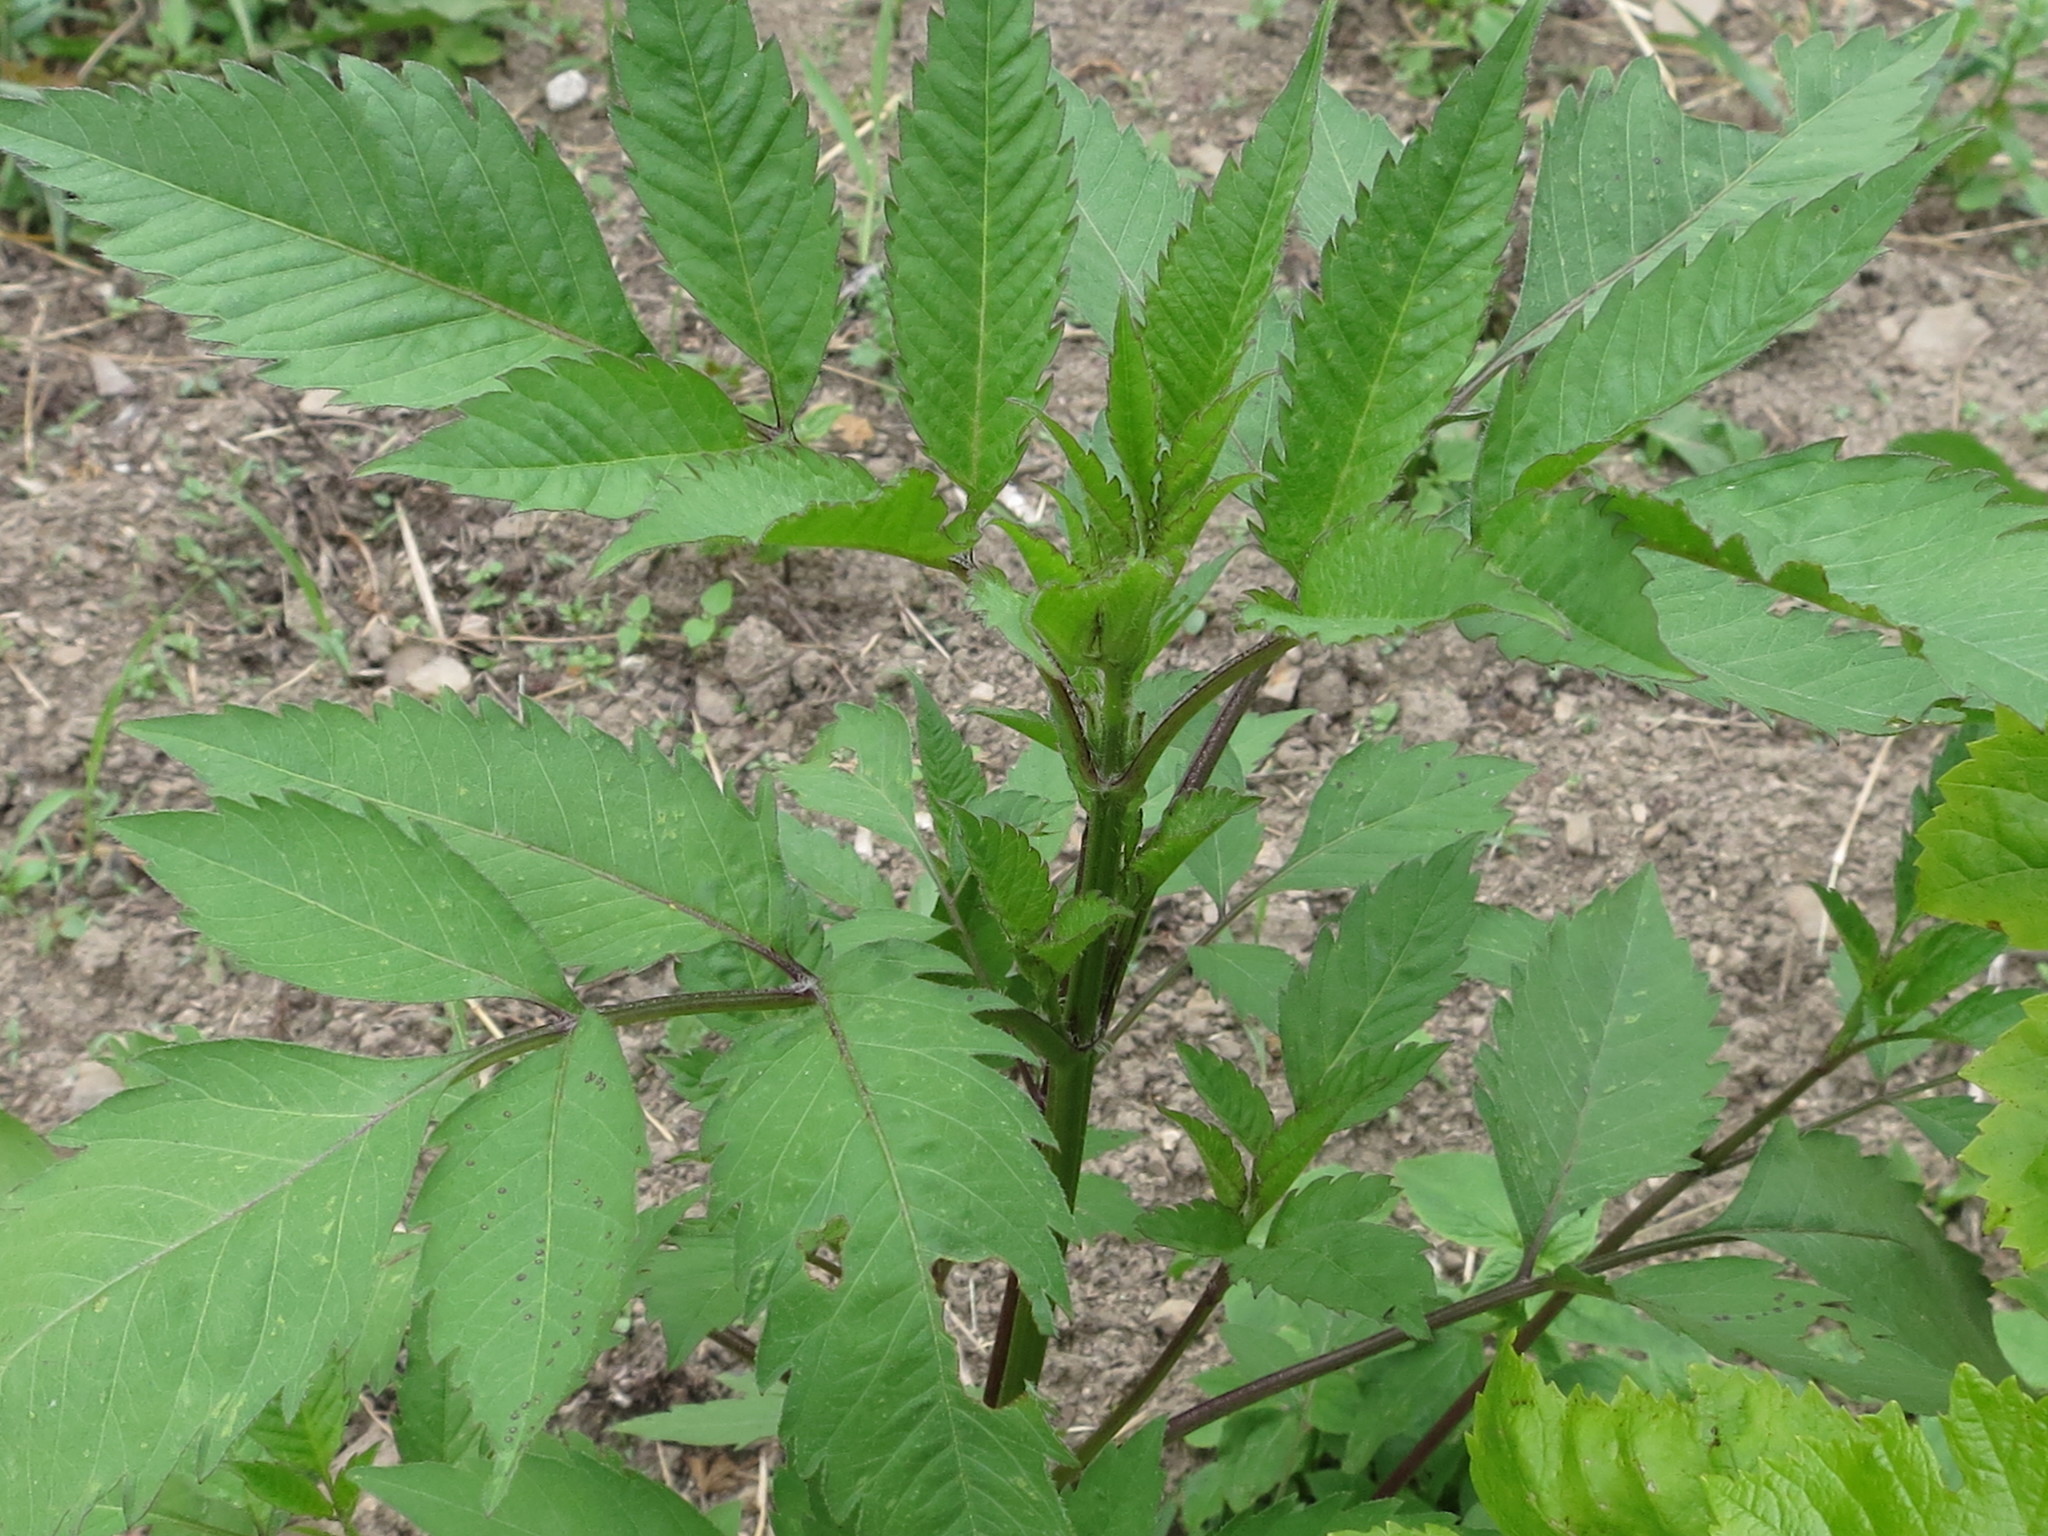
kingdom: Plantae
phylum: Tracheophyta
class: Magnoliopsida
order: Asterales
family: Asteraceae
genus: Bidens
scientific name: Bidens frondosa
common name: Beggarticks
